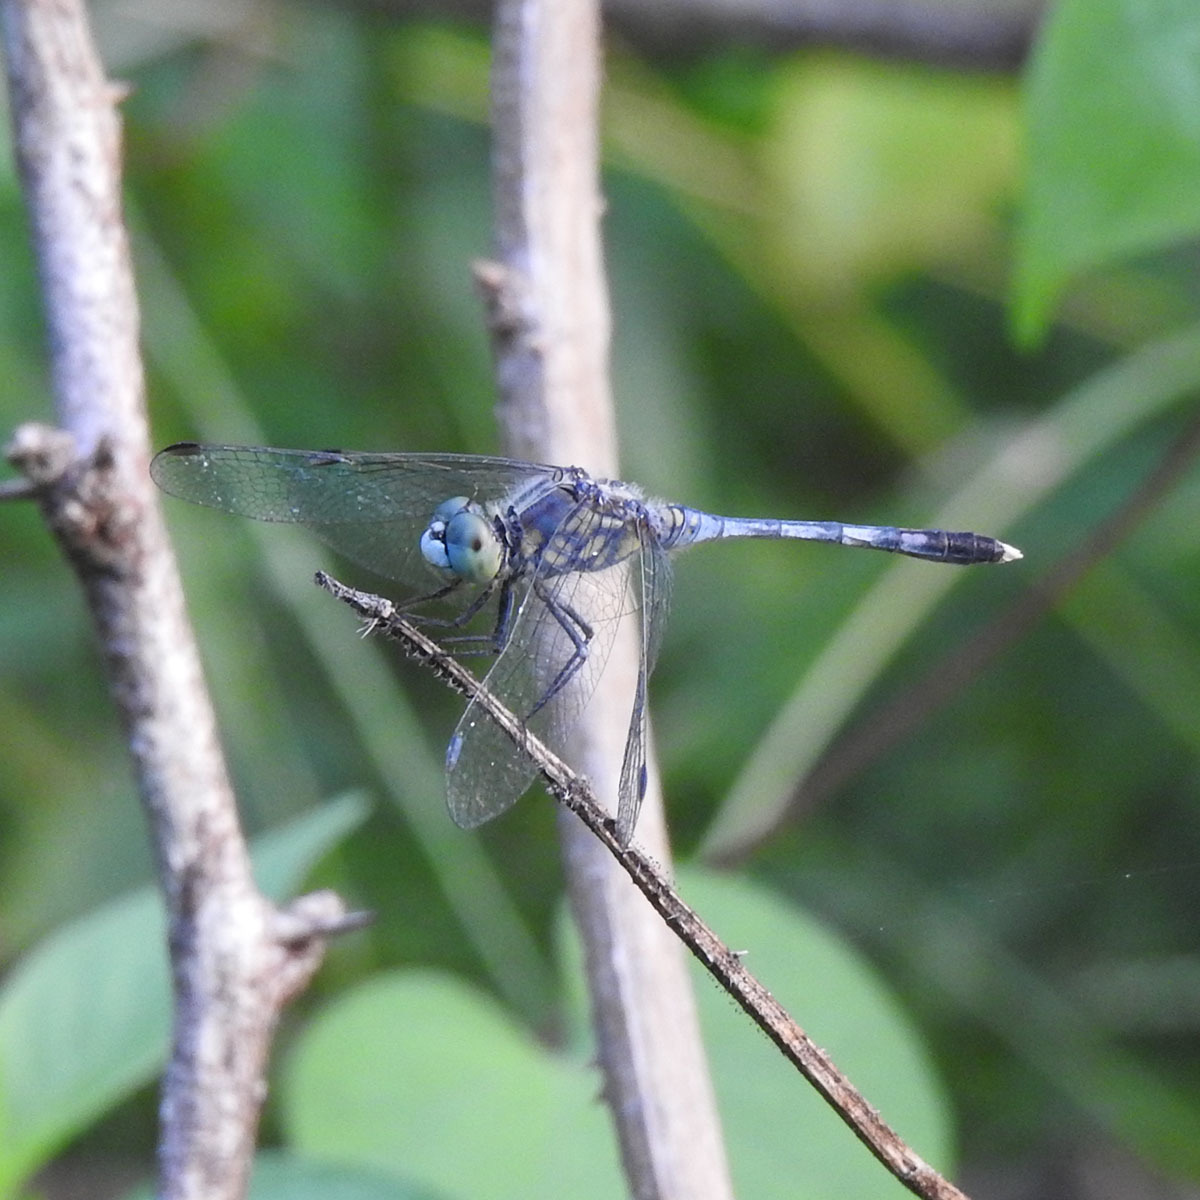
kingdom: Animalia
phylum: Arthropoda
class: Insecta
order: Odonata
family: Libellulidae
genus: Diplacodes
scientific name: Diplacodes trivialis
